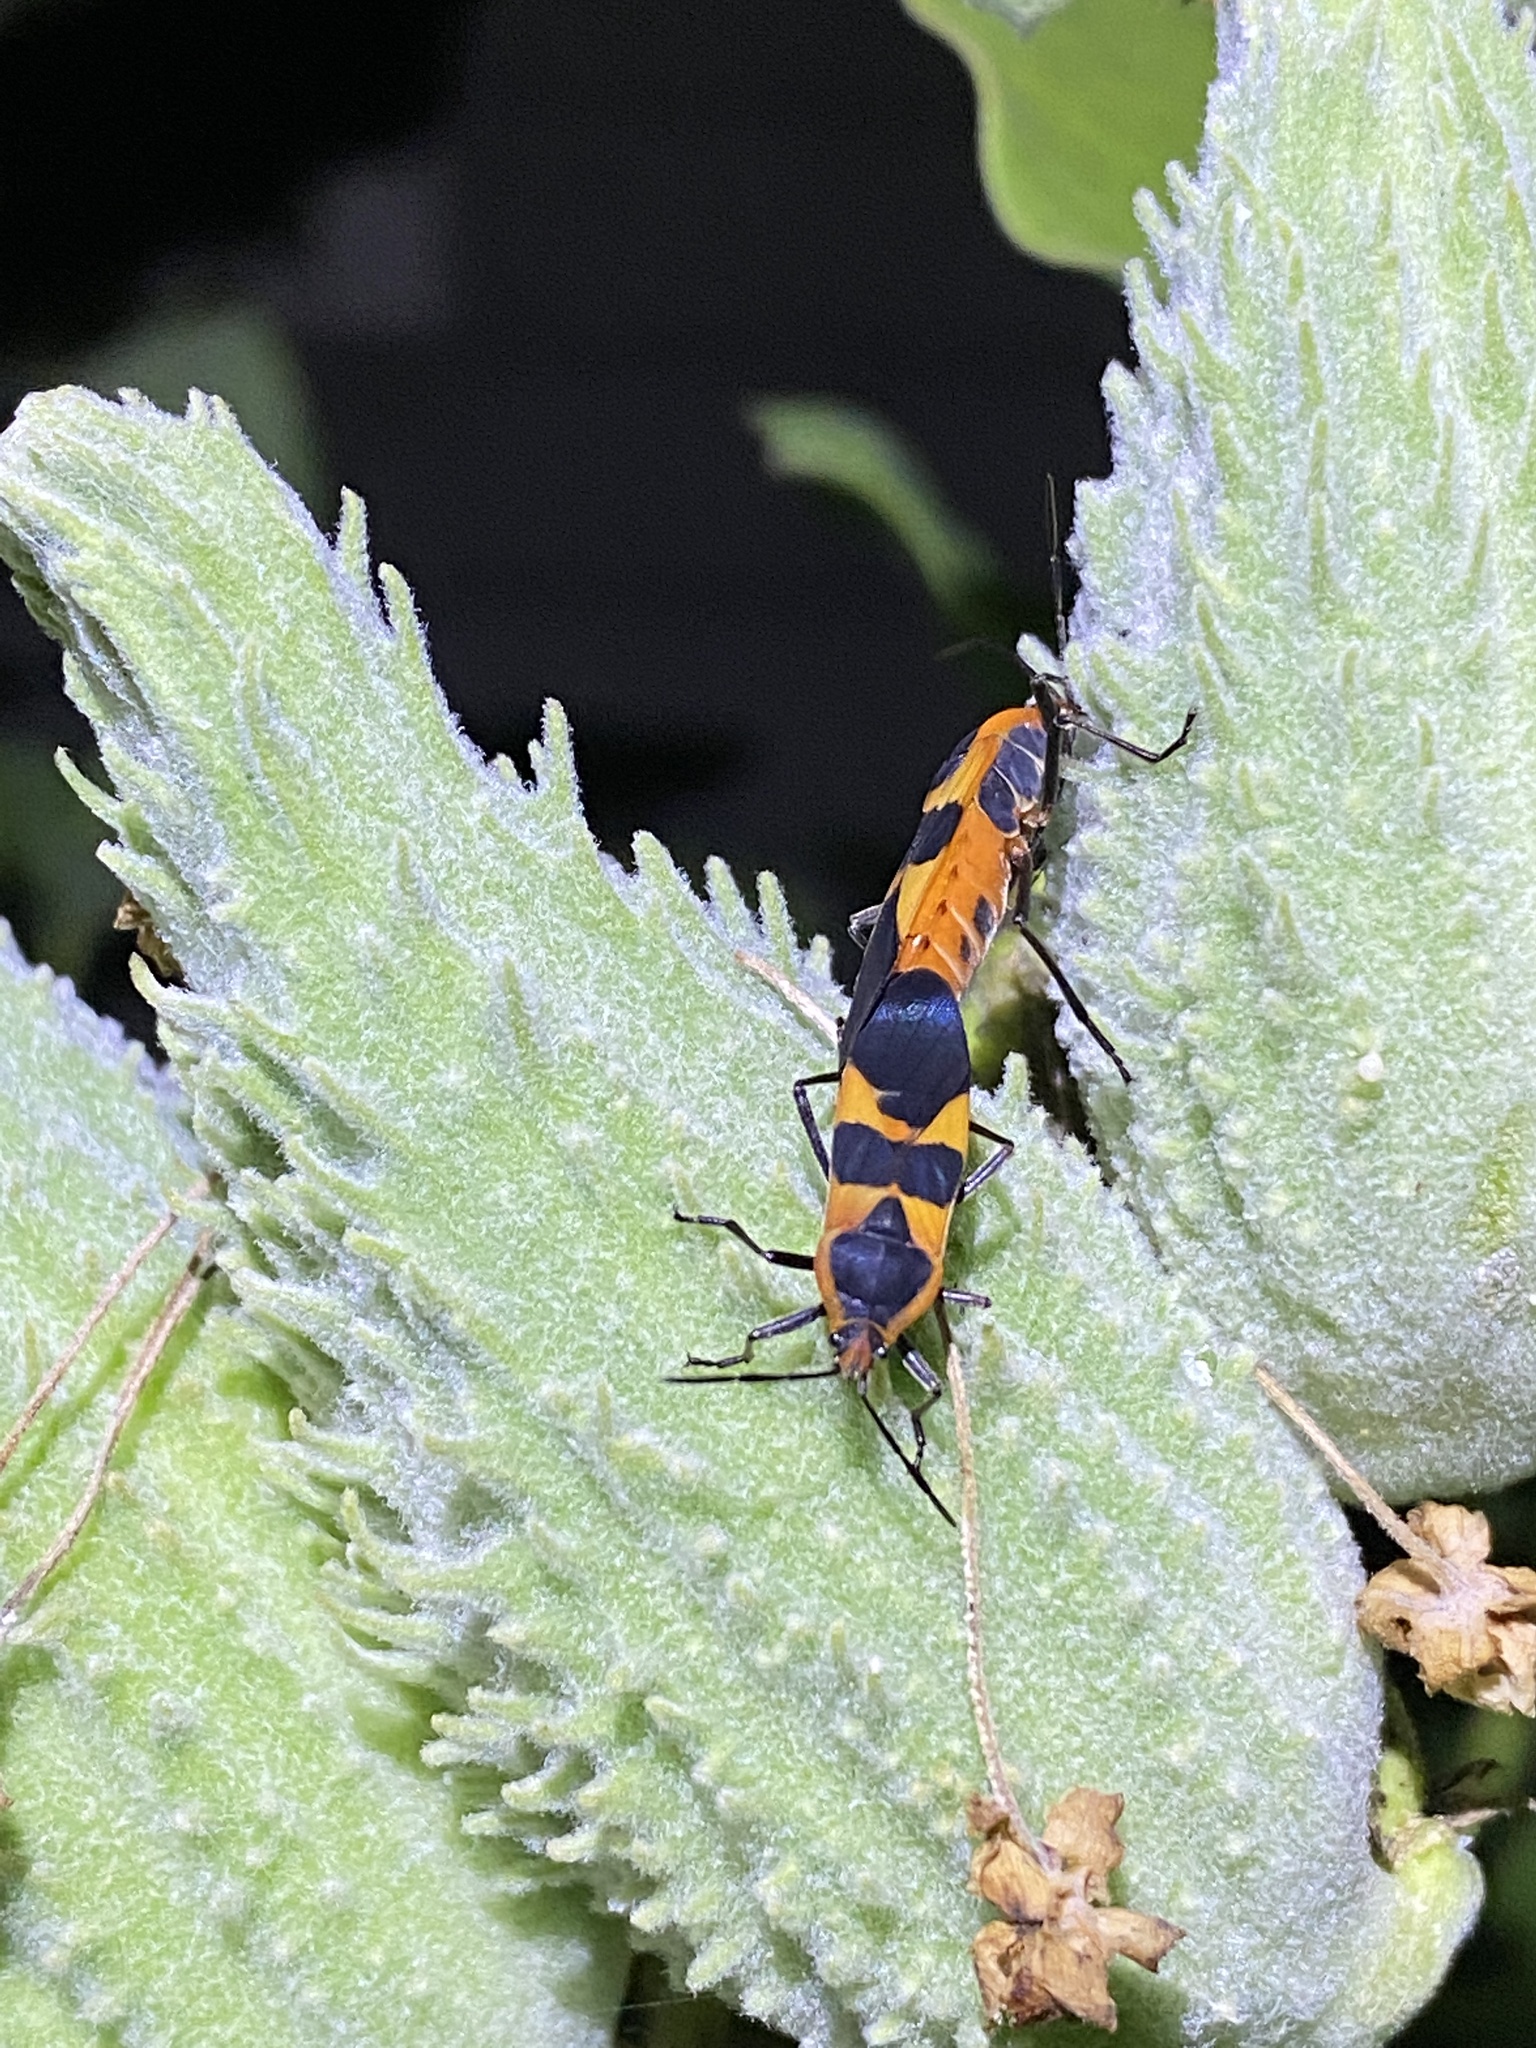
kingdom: Animalia
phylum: Arthropoda
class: Insecta
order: Hemiptera
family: Lygaeidae
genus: Oncopeltus
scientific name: Oncopeltus fasciatus
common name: Large milkweed bug
